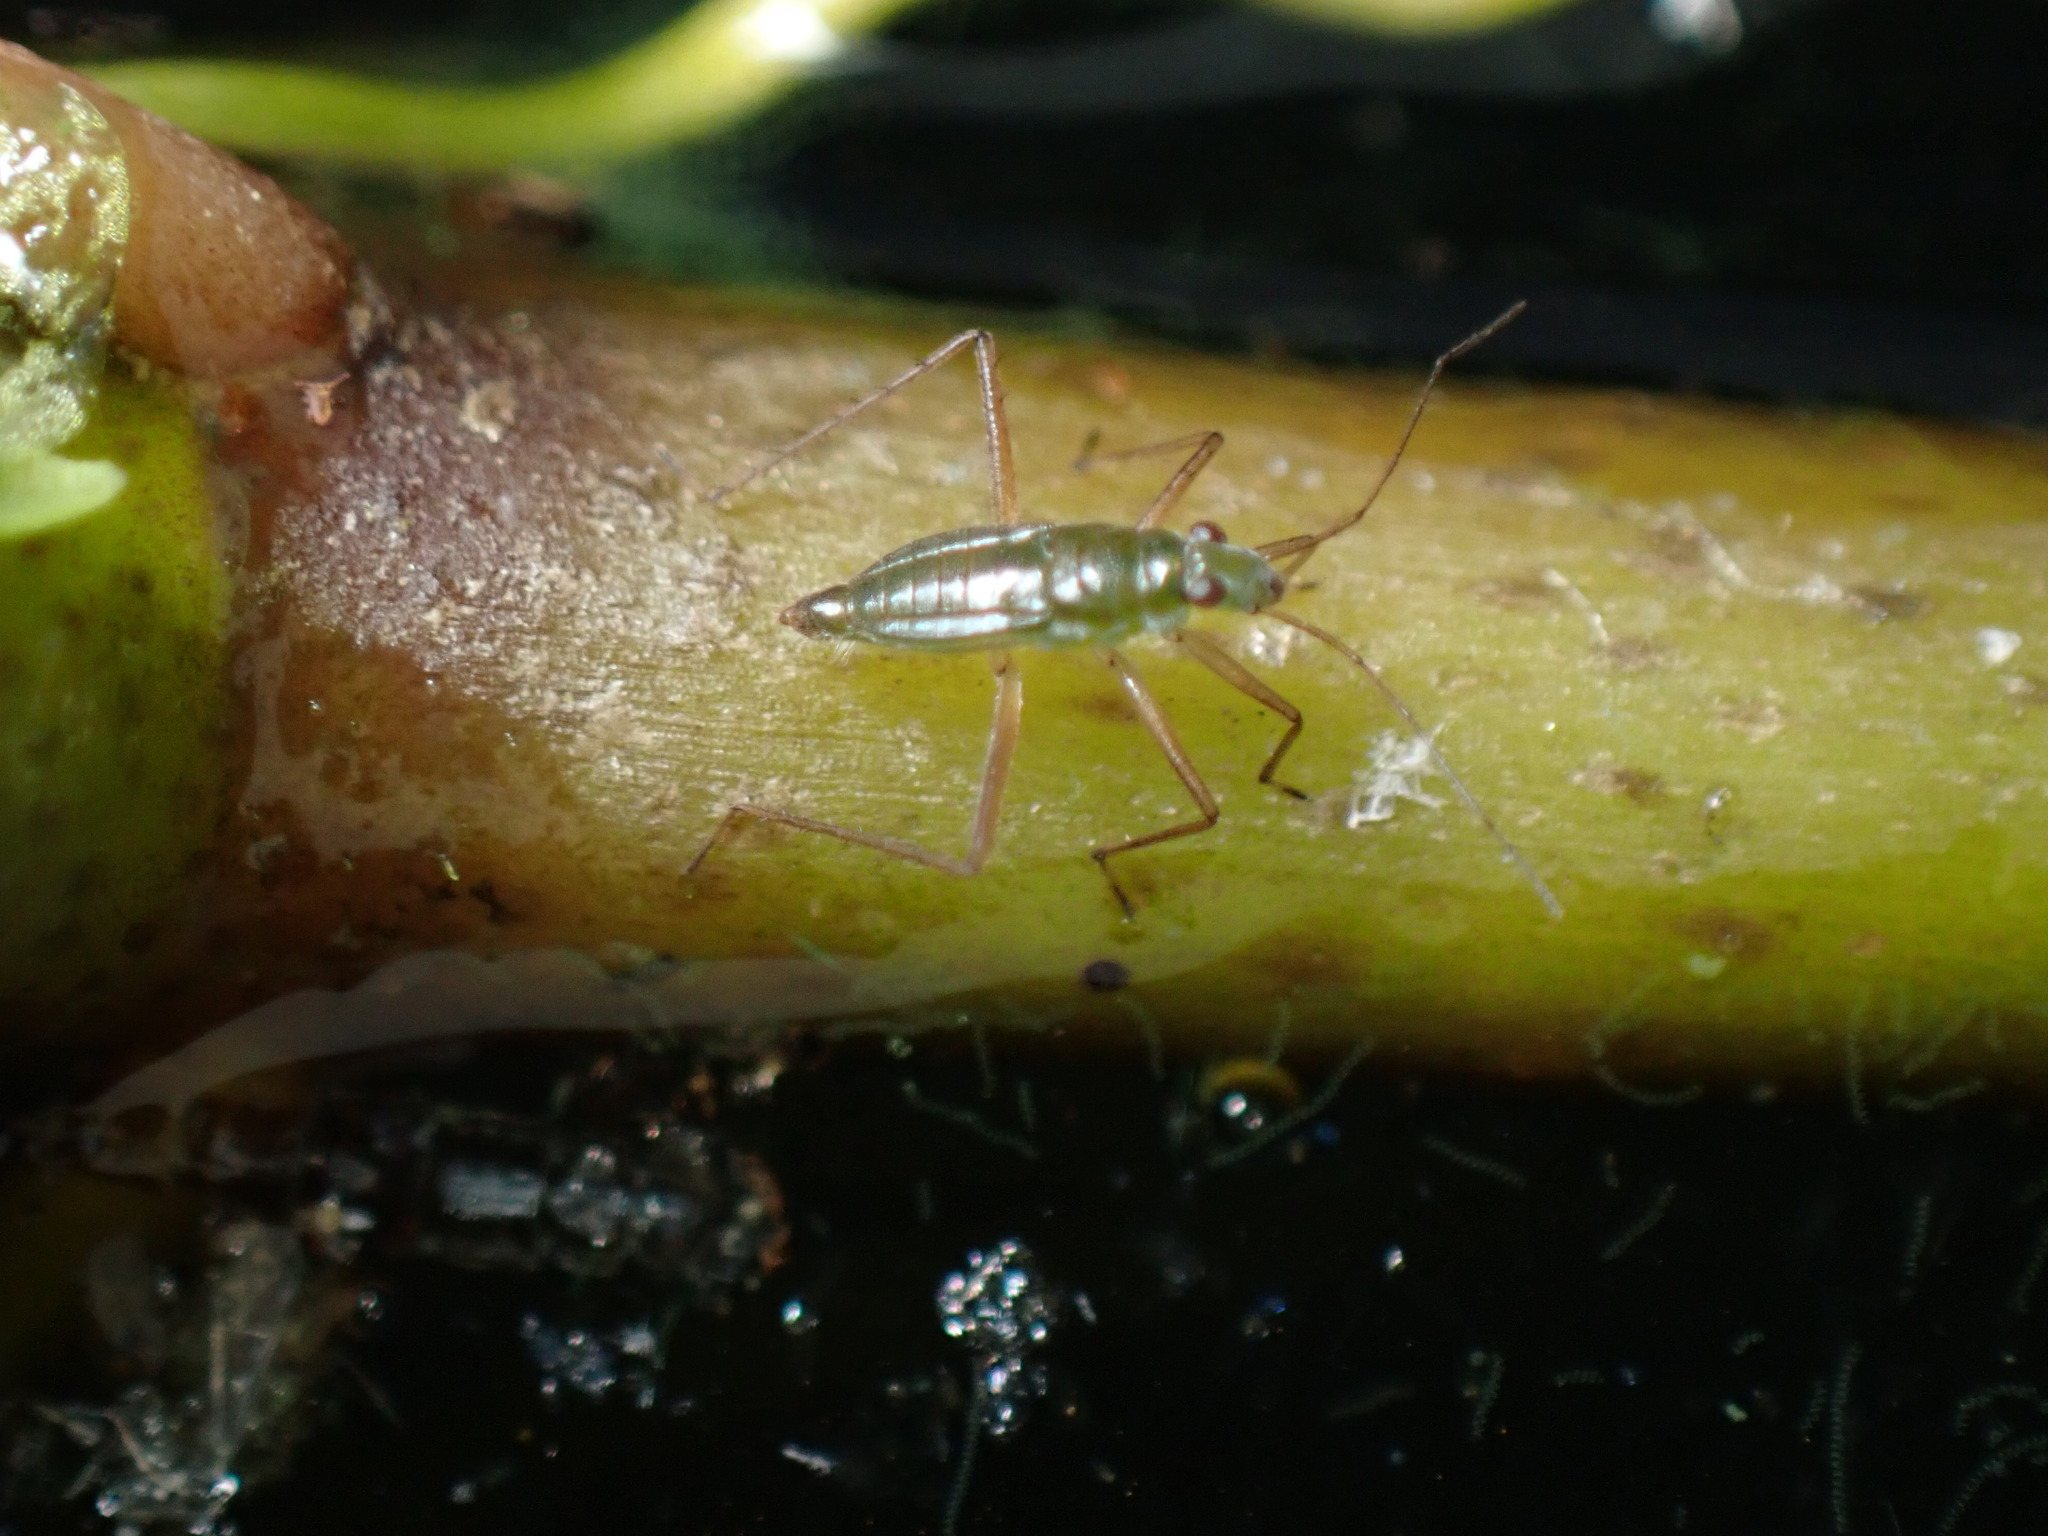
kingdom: Animalia
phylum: Arthropoda
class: Insecta
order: Hemiptera
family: Mesoveliidae
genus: Mesovelia
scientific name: Mesovelia mulsanti
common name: Water treaders
